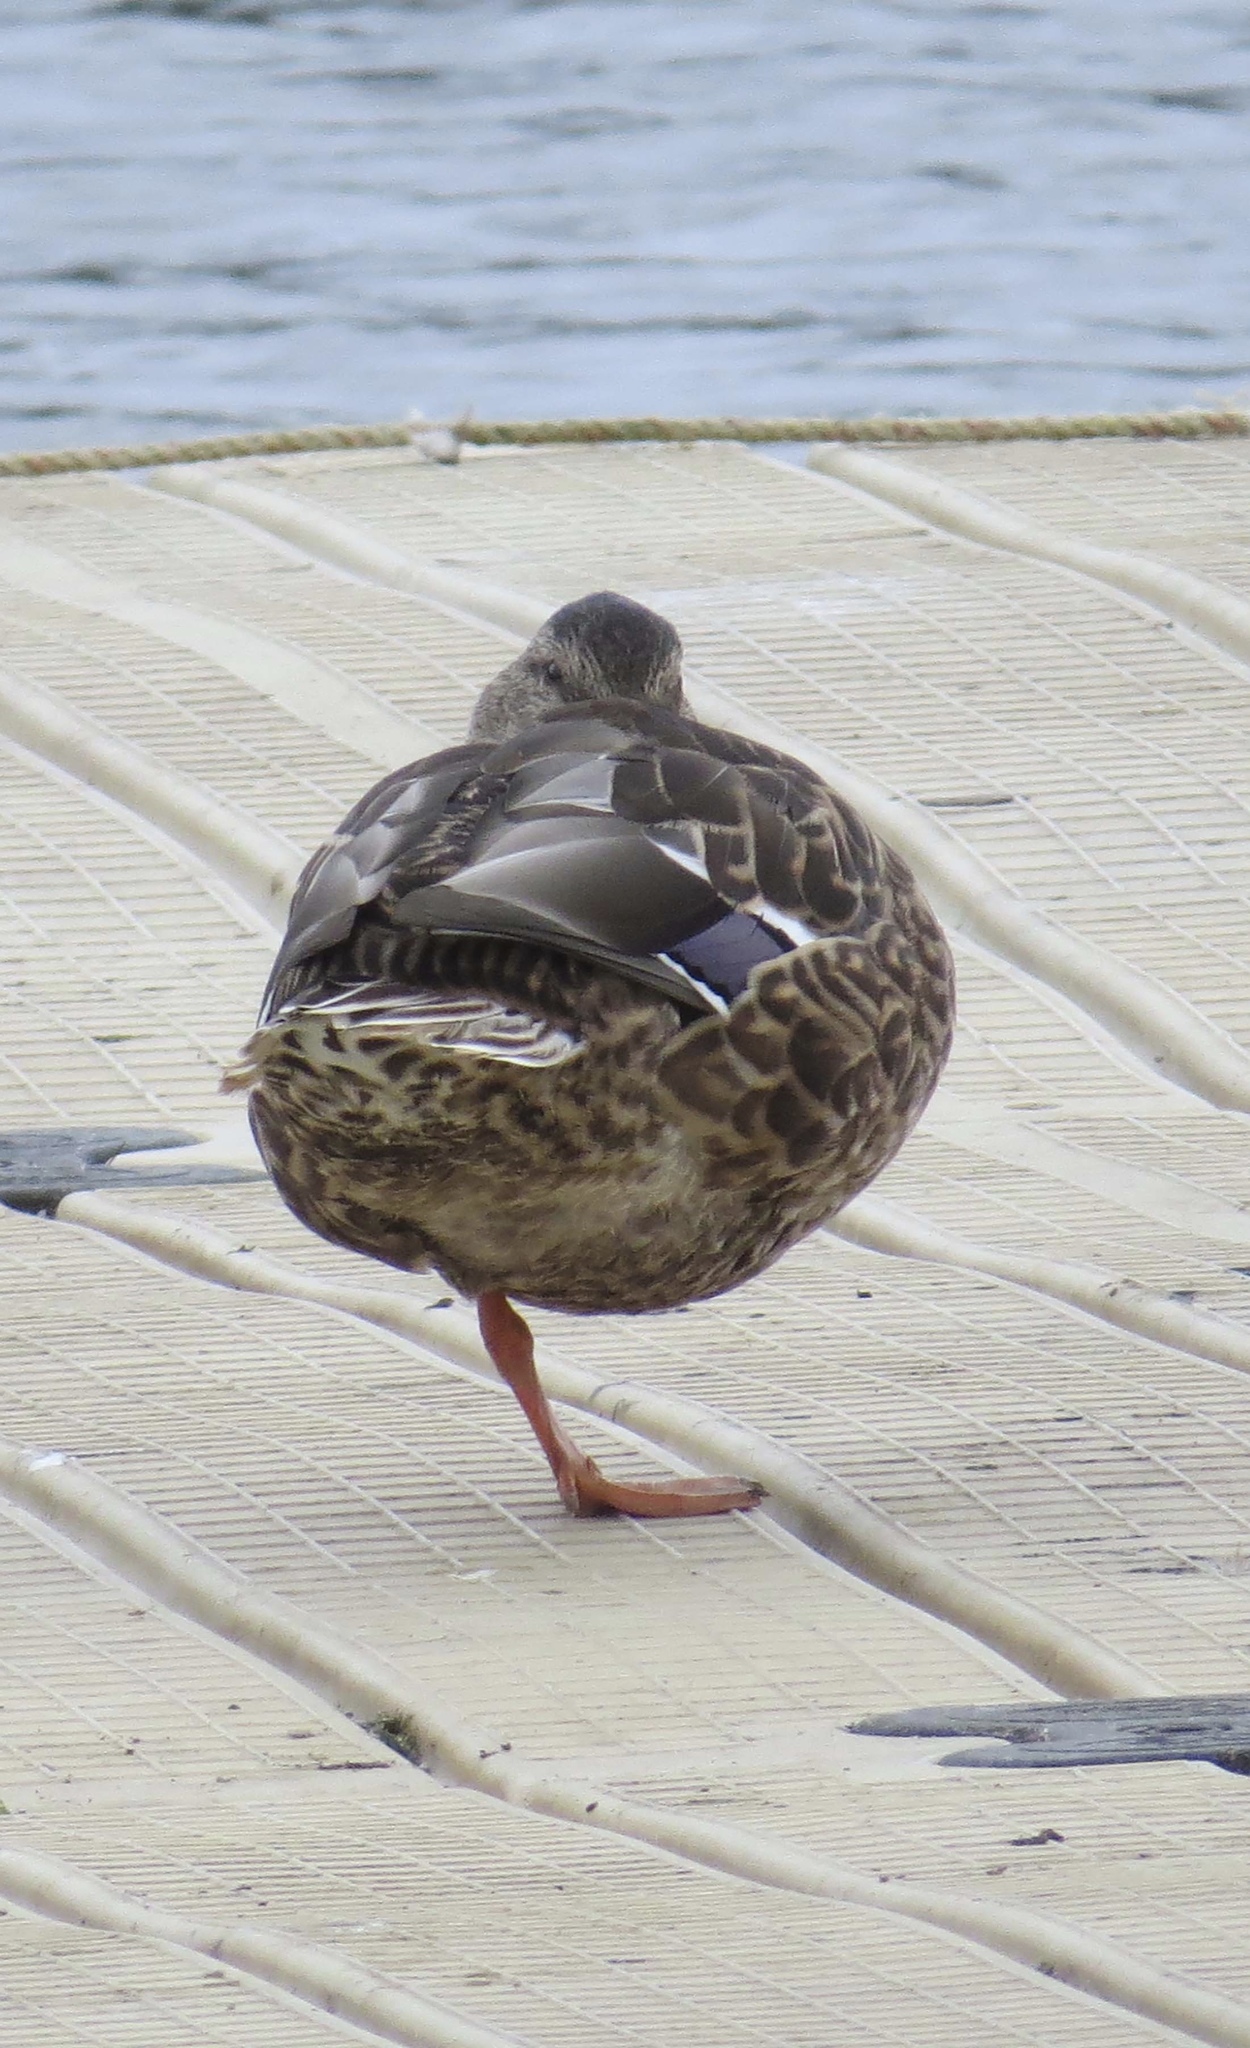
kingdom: Animalia
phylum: Chordata
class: Aves
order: Anseriformes
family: Anatidae
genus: Anas
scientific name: Anas platyrhynchos
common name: Mallard
